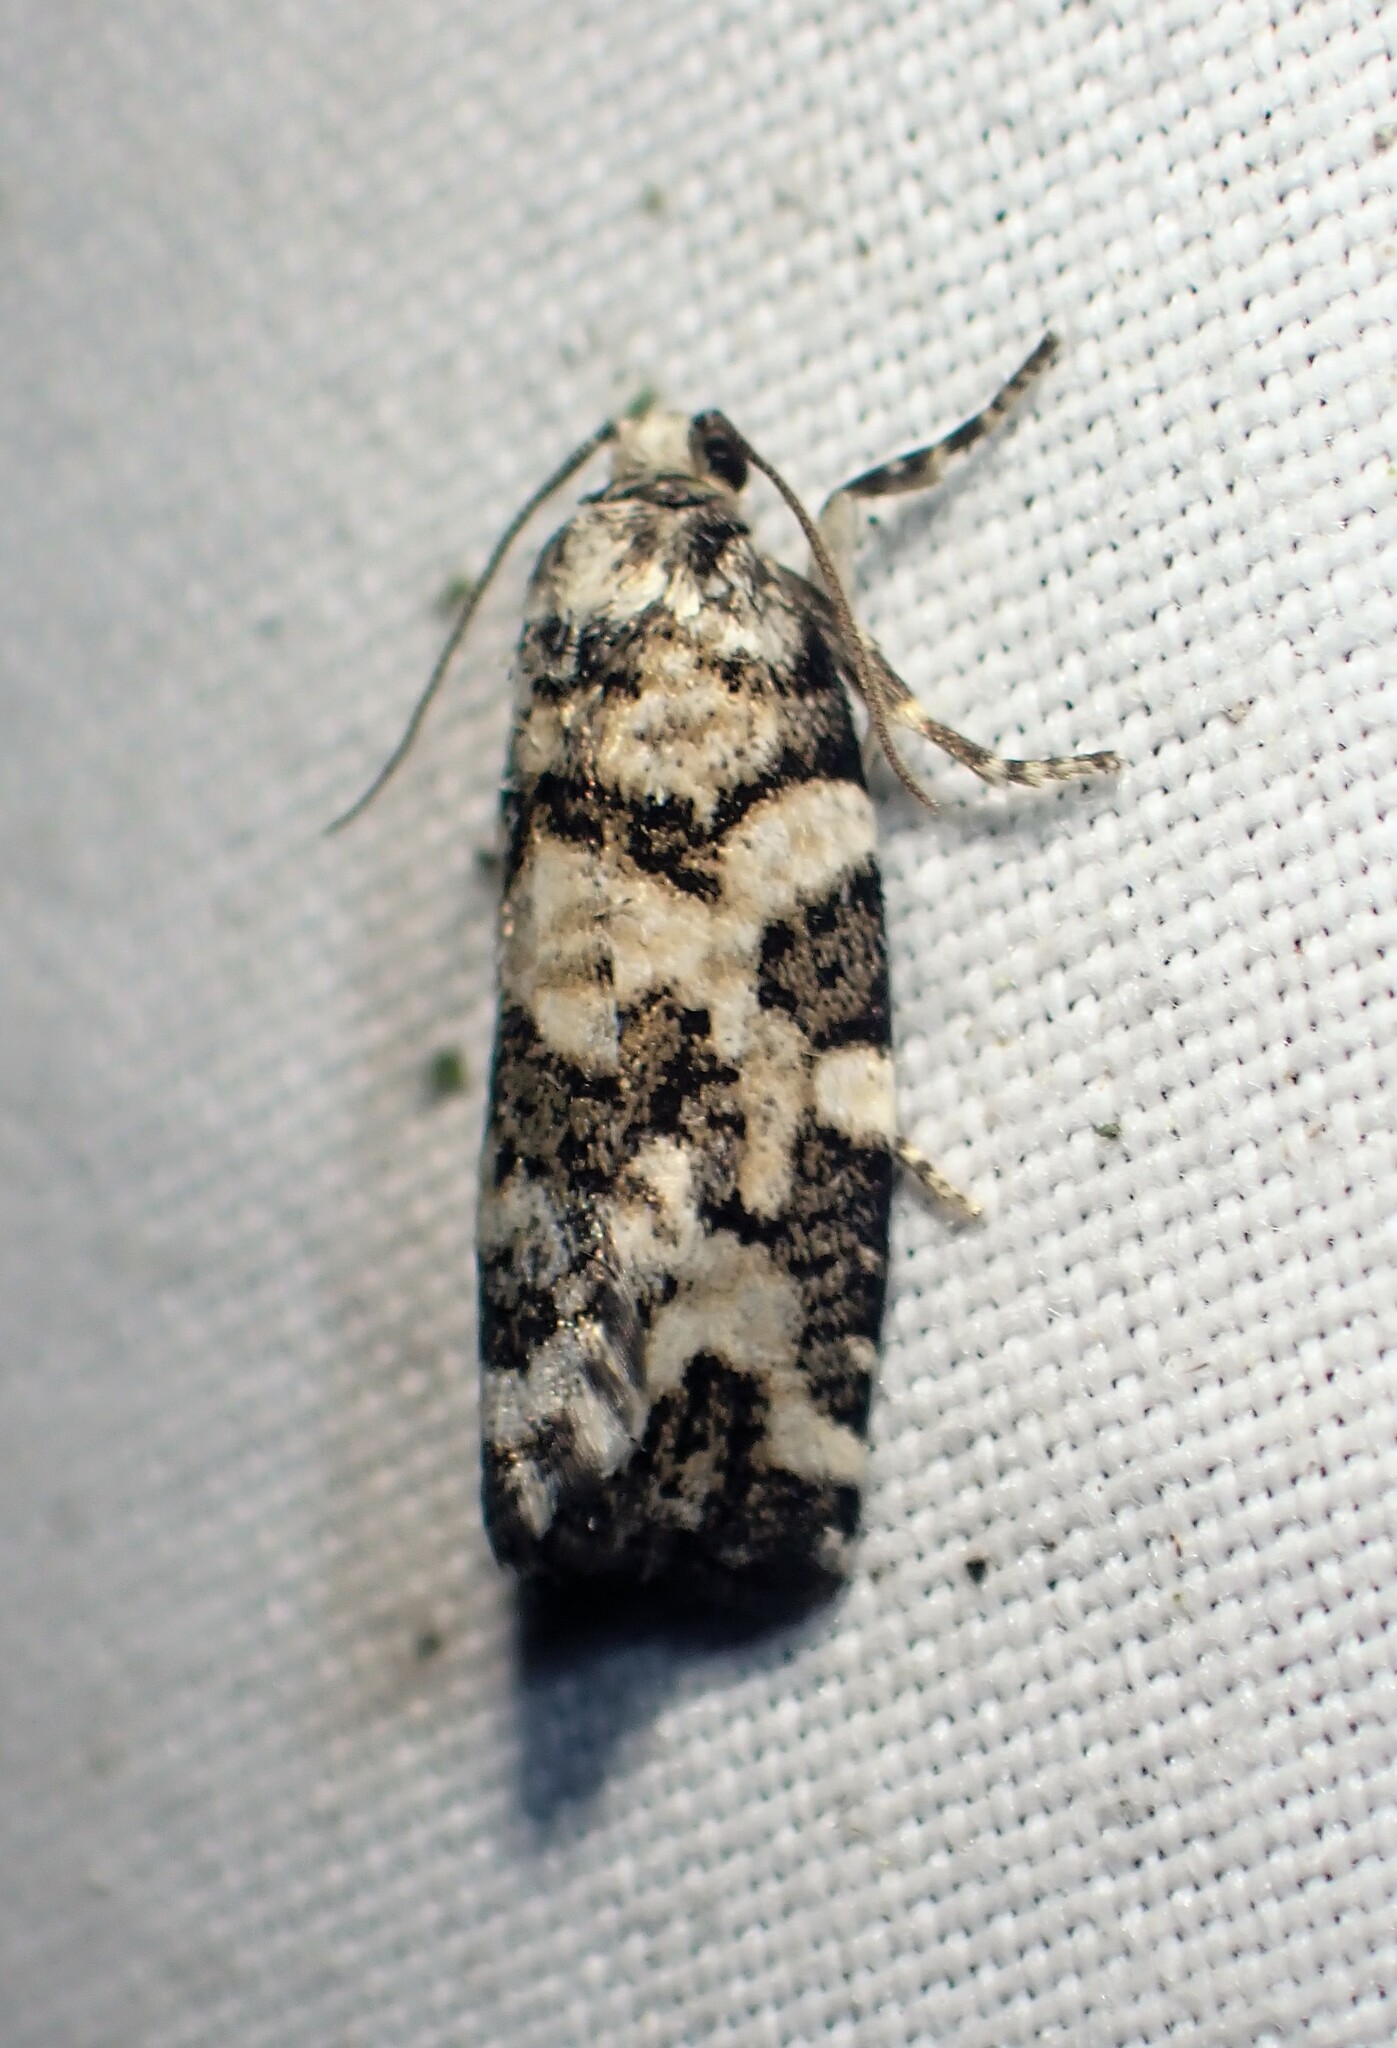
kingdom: Animalia
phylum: Arthropoda
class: Insecta
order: Lepidoptera
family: Tortricidae
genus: Archips
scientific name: Archips packardiana
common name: Spring spruce needle moth
